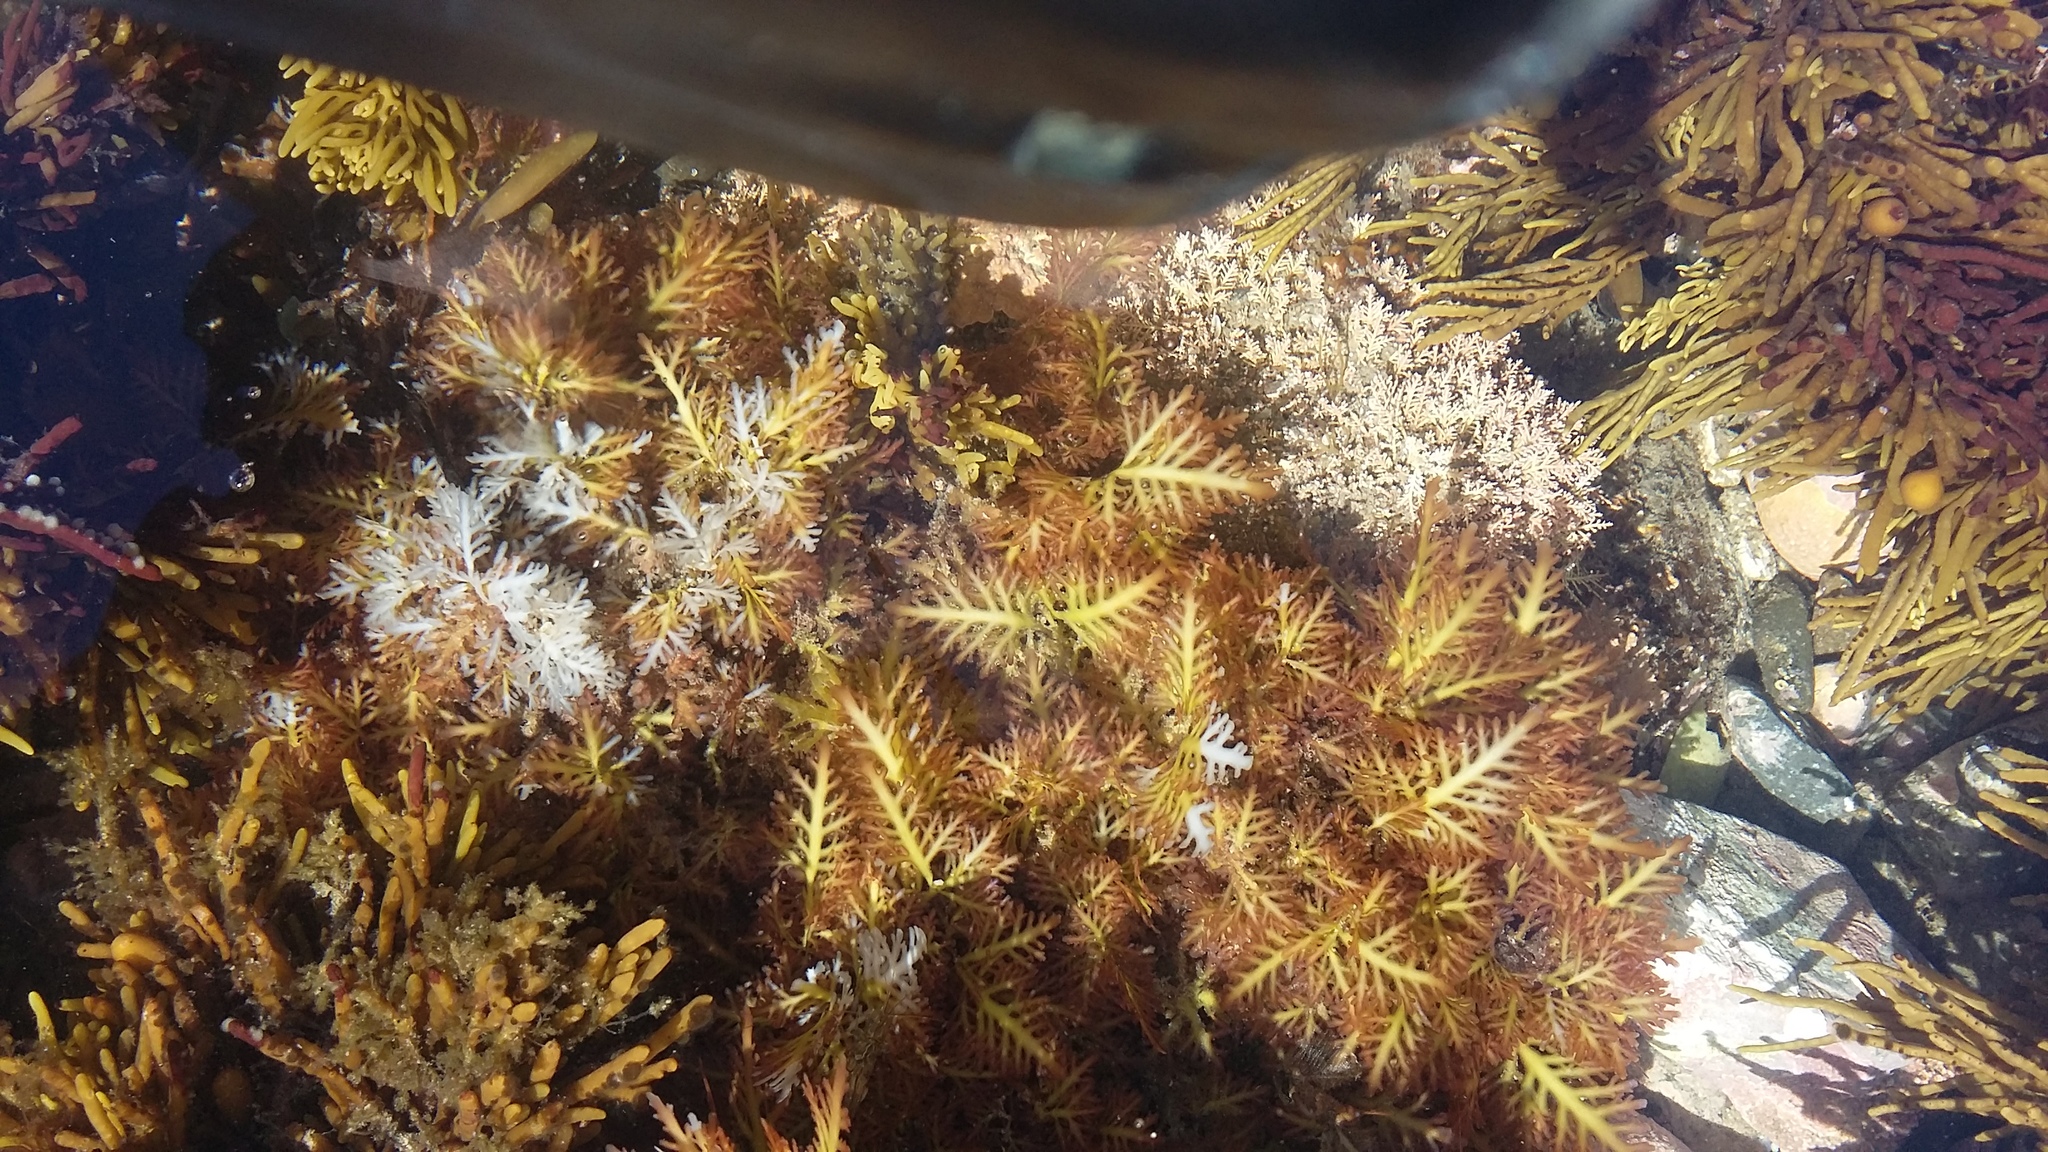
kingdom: Plantae
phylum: Rhodophyta
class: Florideophyceae
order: Gelidiales
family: Pterocladiaceae
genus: Pterocladia
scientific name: Pterocladia lucida
